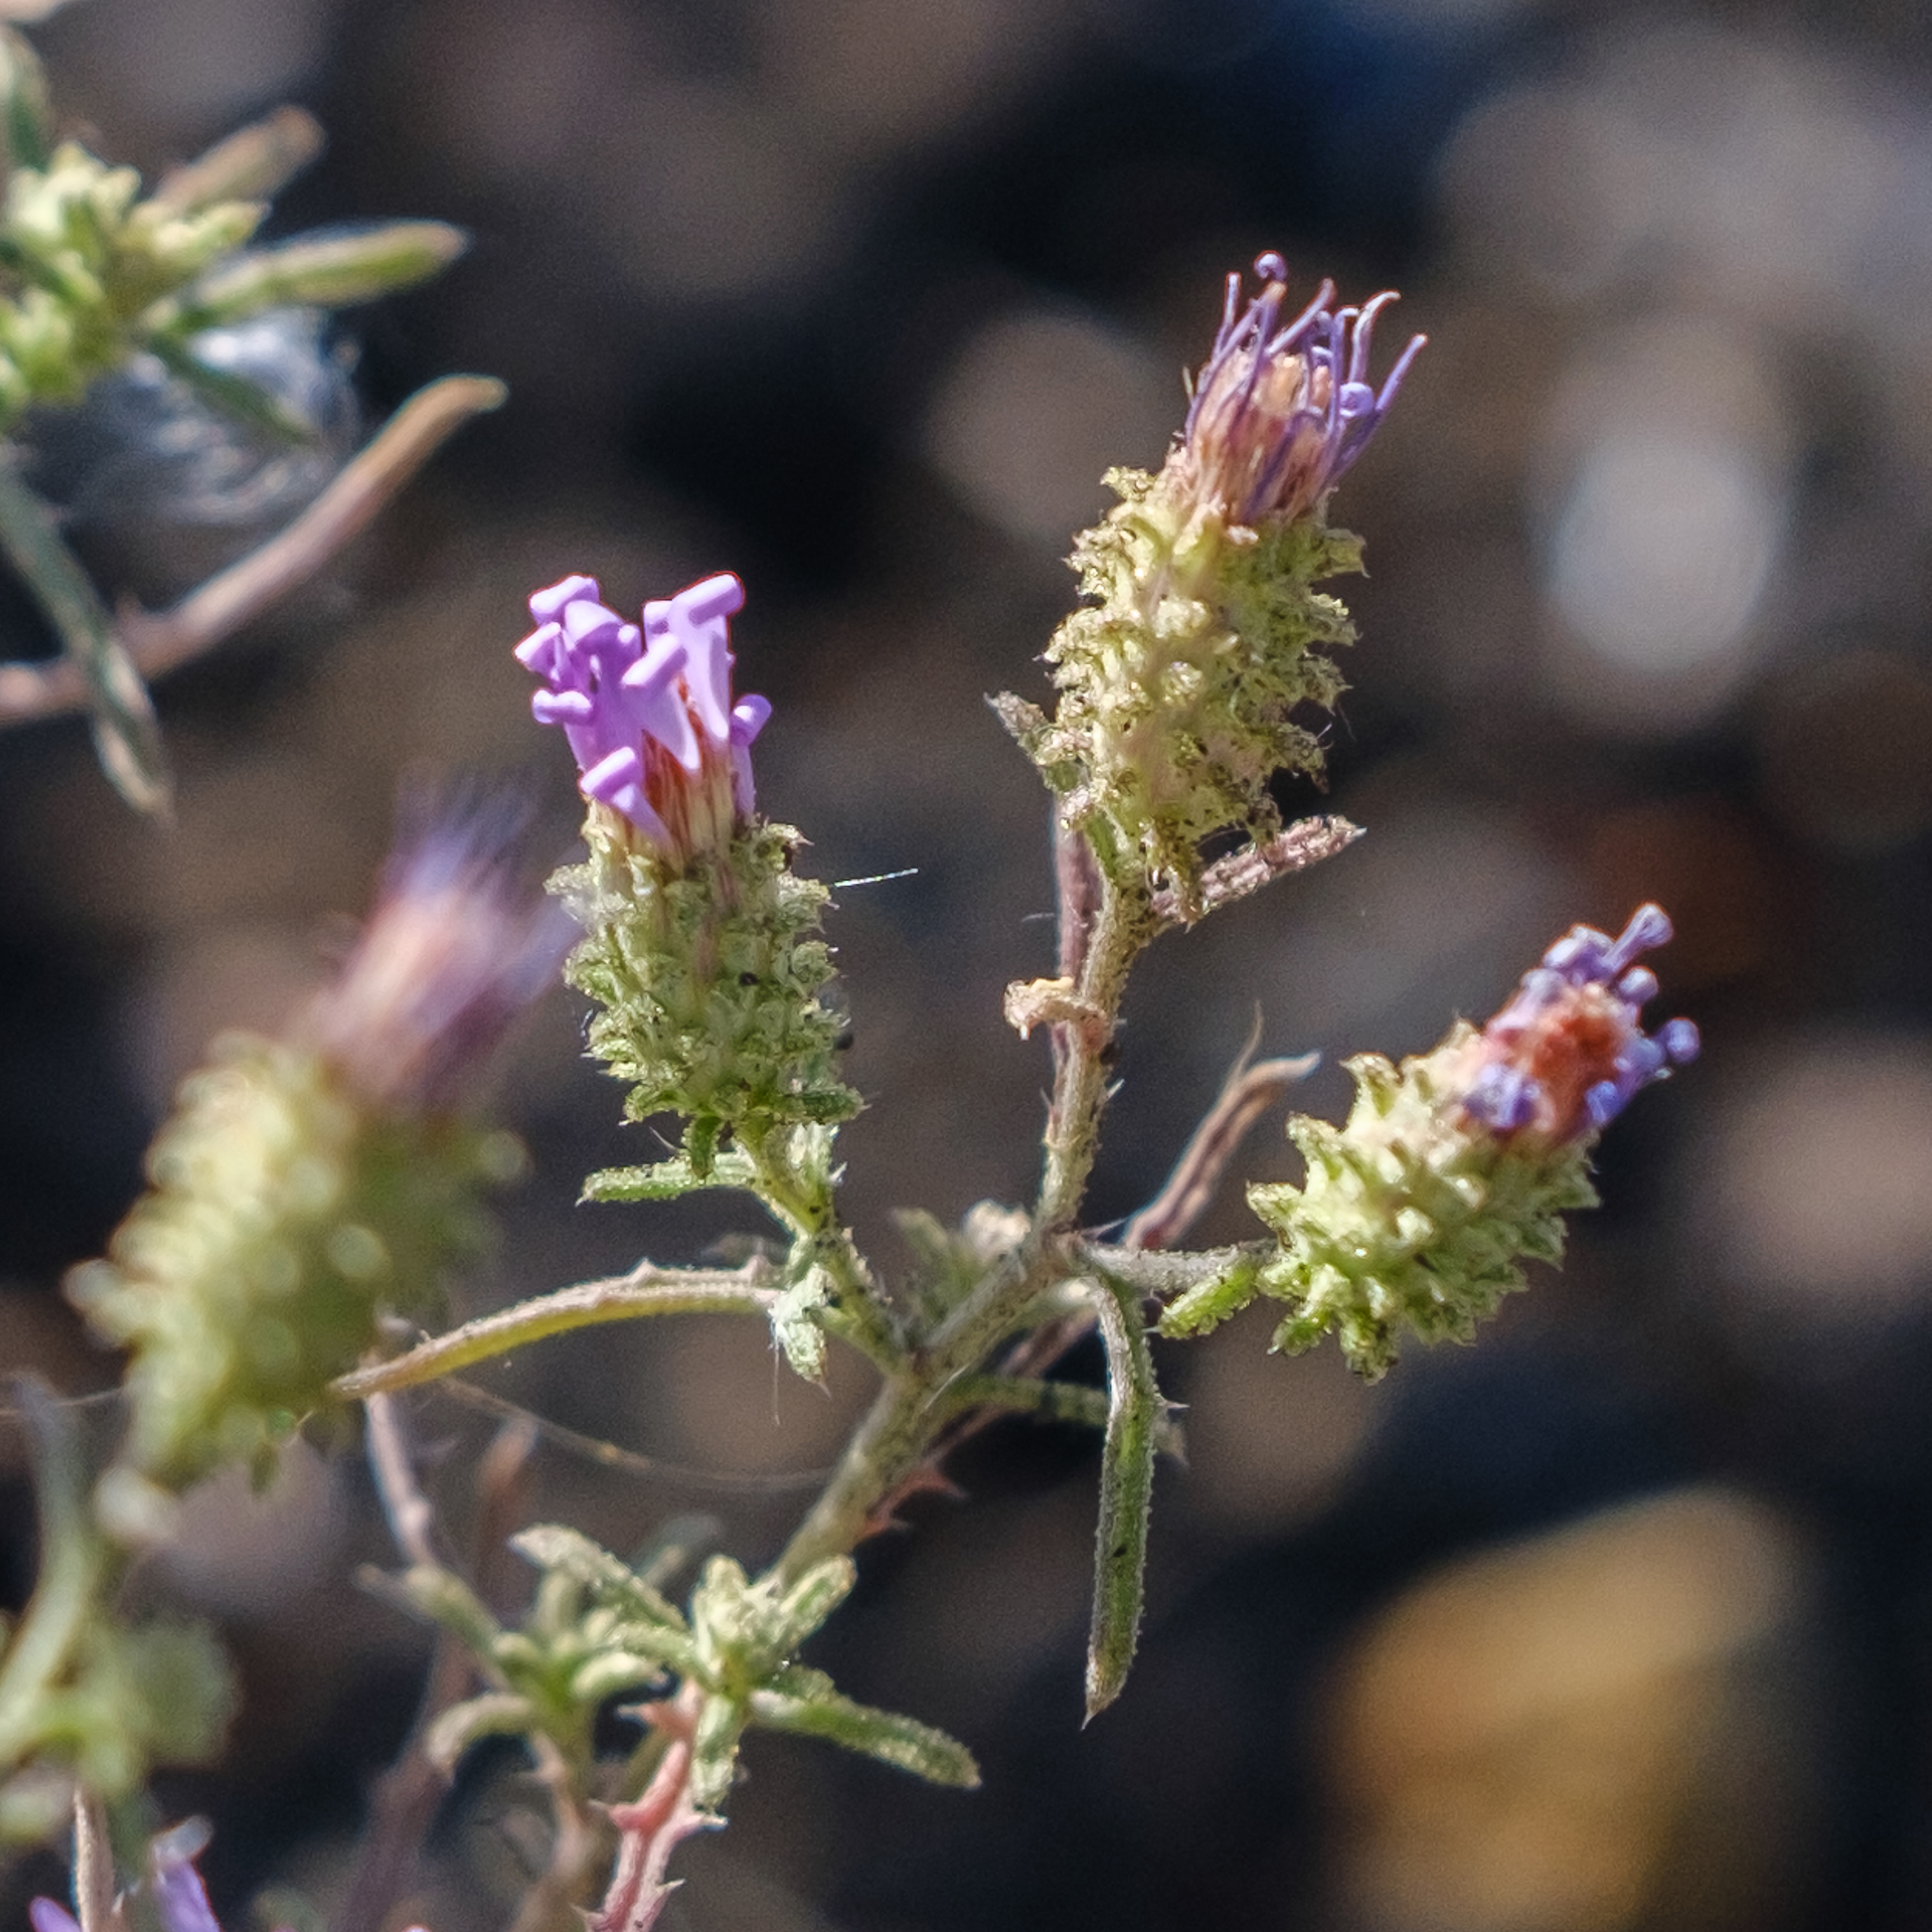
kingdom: Plantae
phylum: Tracheophyta
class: Magnoliopsida
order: Asterales
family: Asteraceae
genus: Dieteria
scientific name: Dieteria canescens
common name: Hoary-aster
